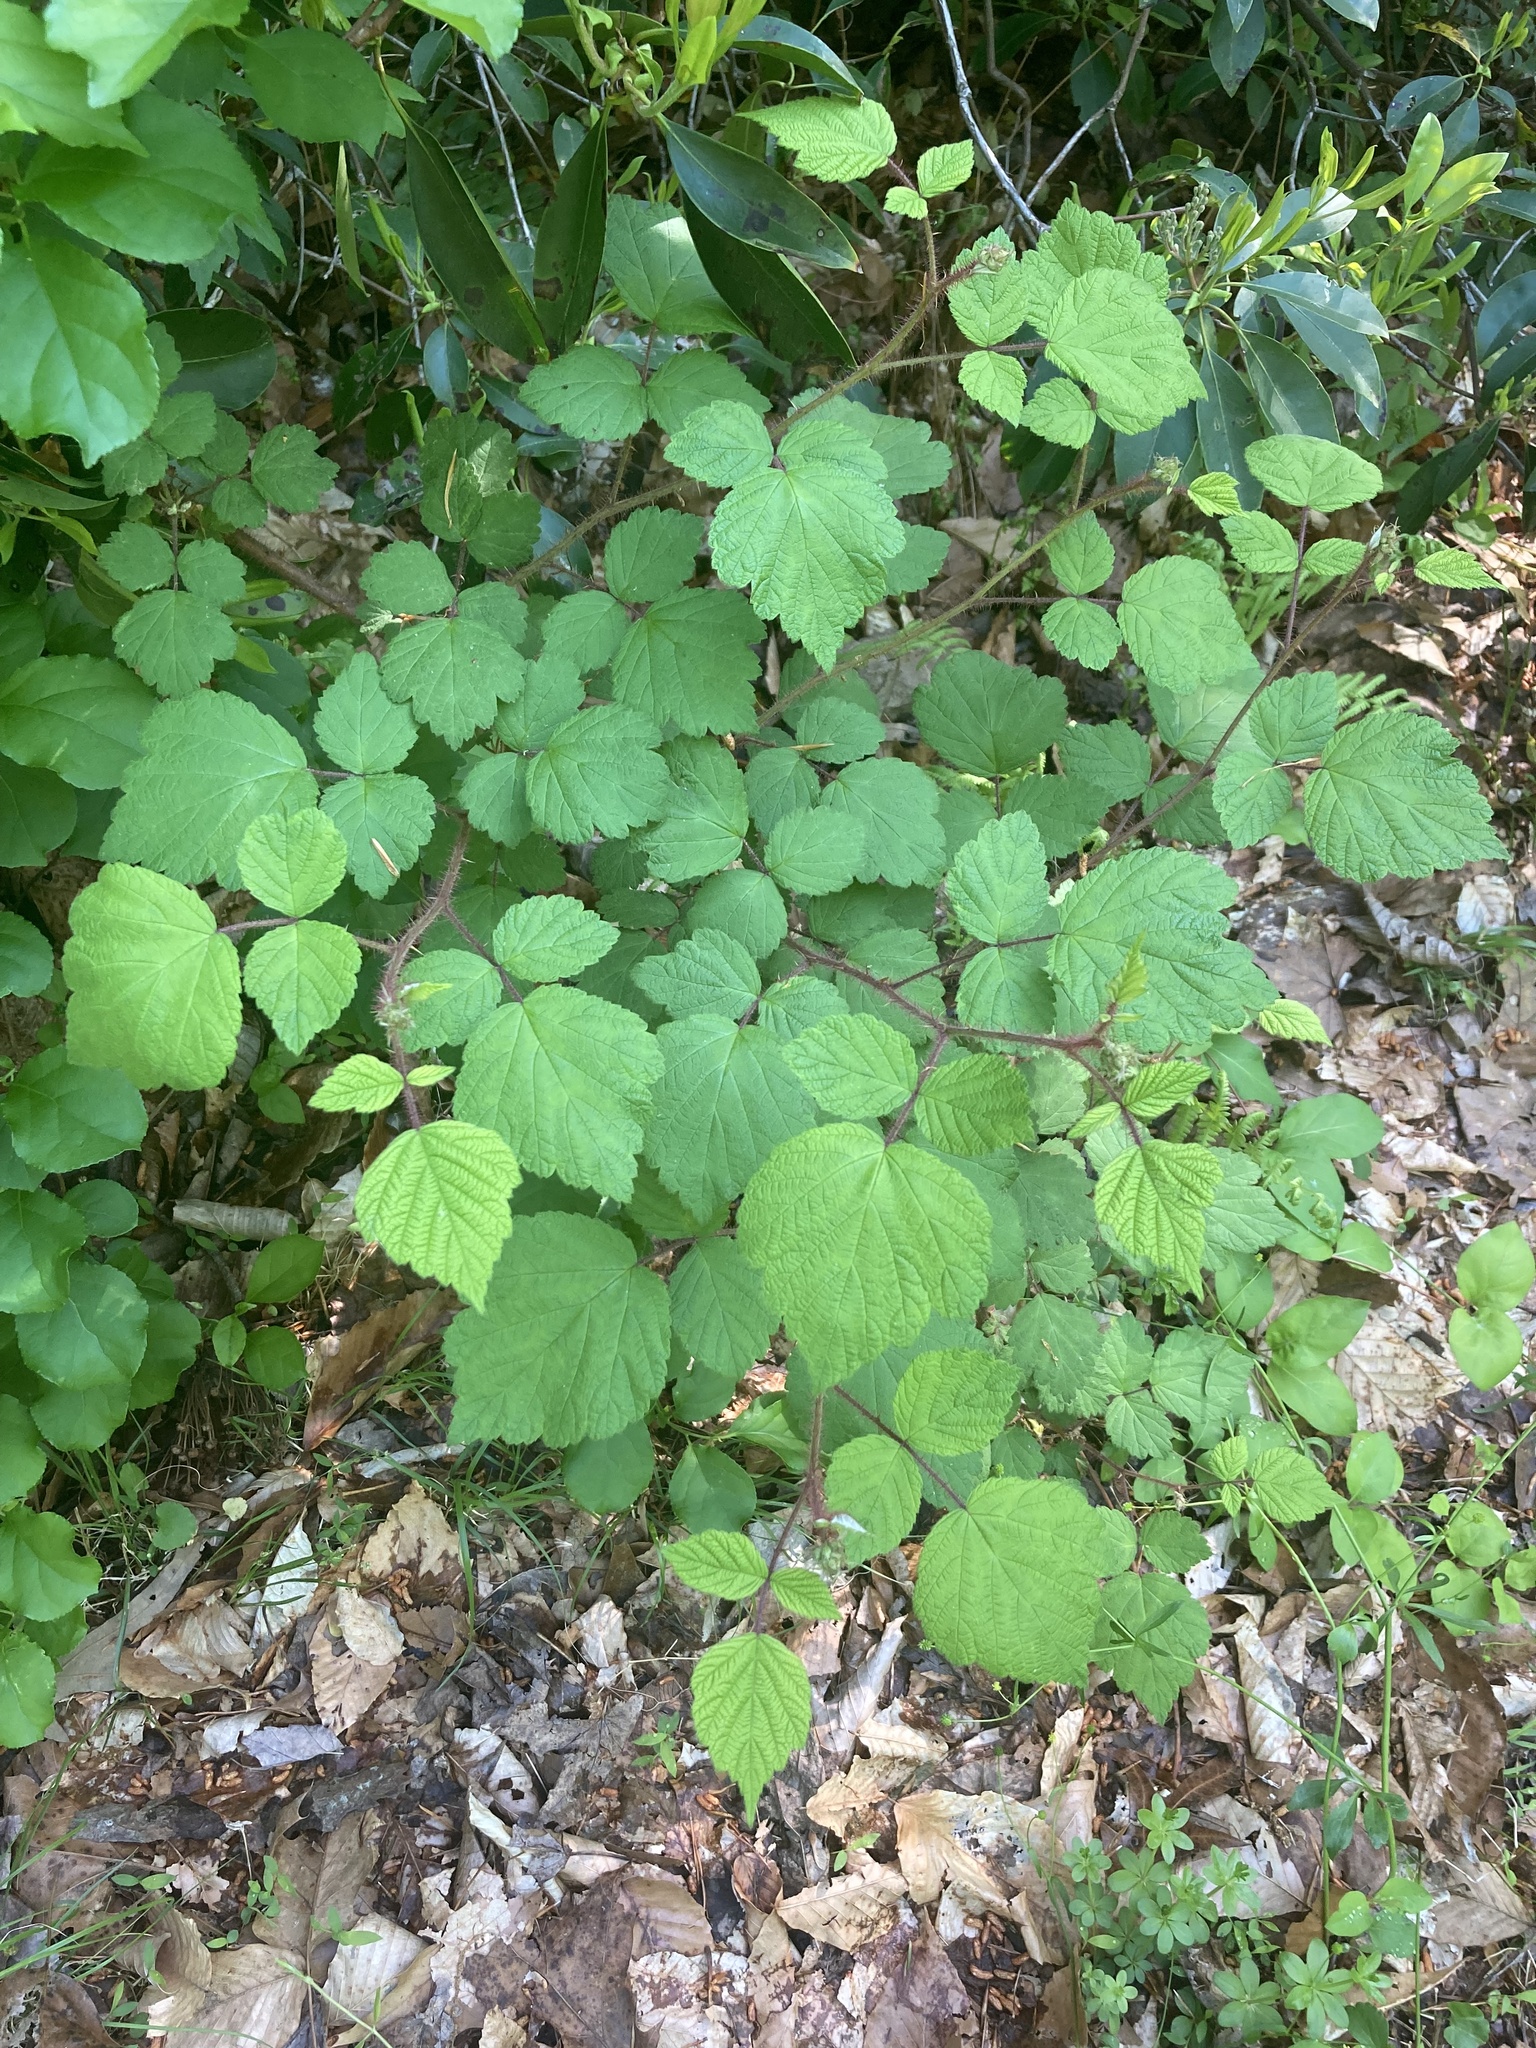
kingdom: Plantae
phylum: Tracheophyta
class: Magnoliopsida
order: Rosales
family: Rosaceae
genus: Rubus
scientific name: Rubus phoenicolasius
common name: Japanese wineberry
